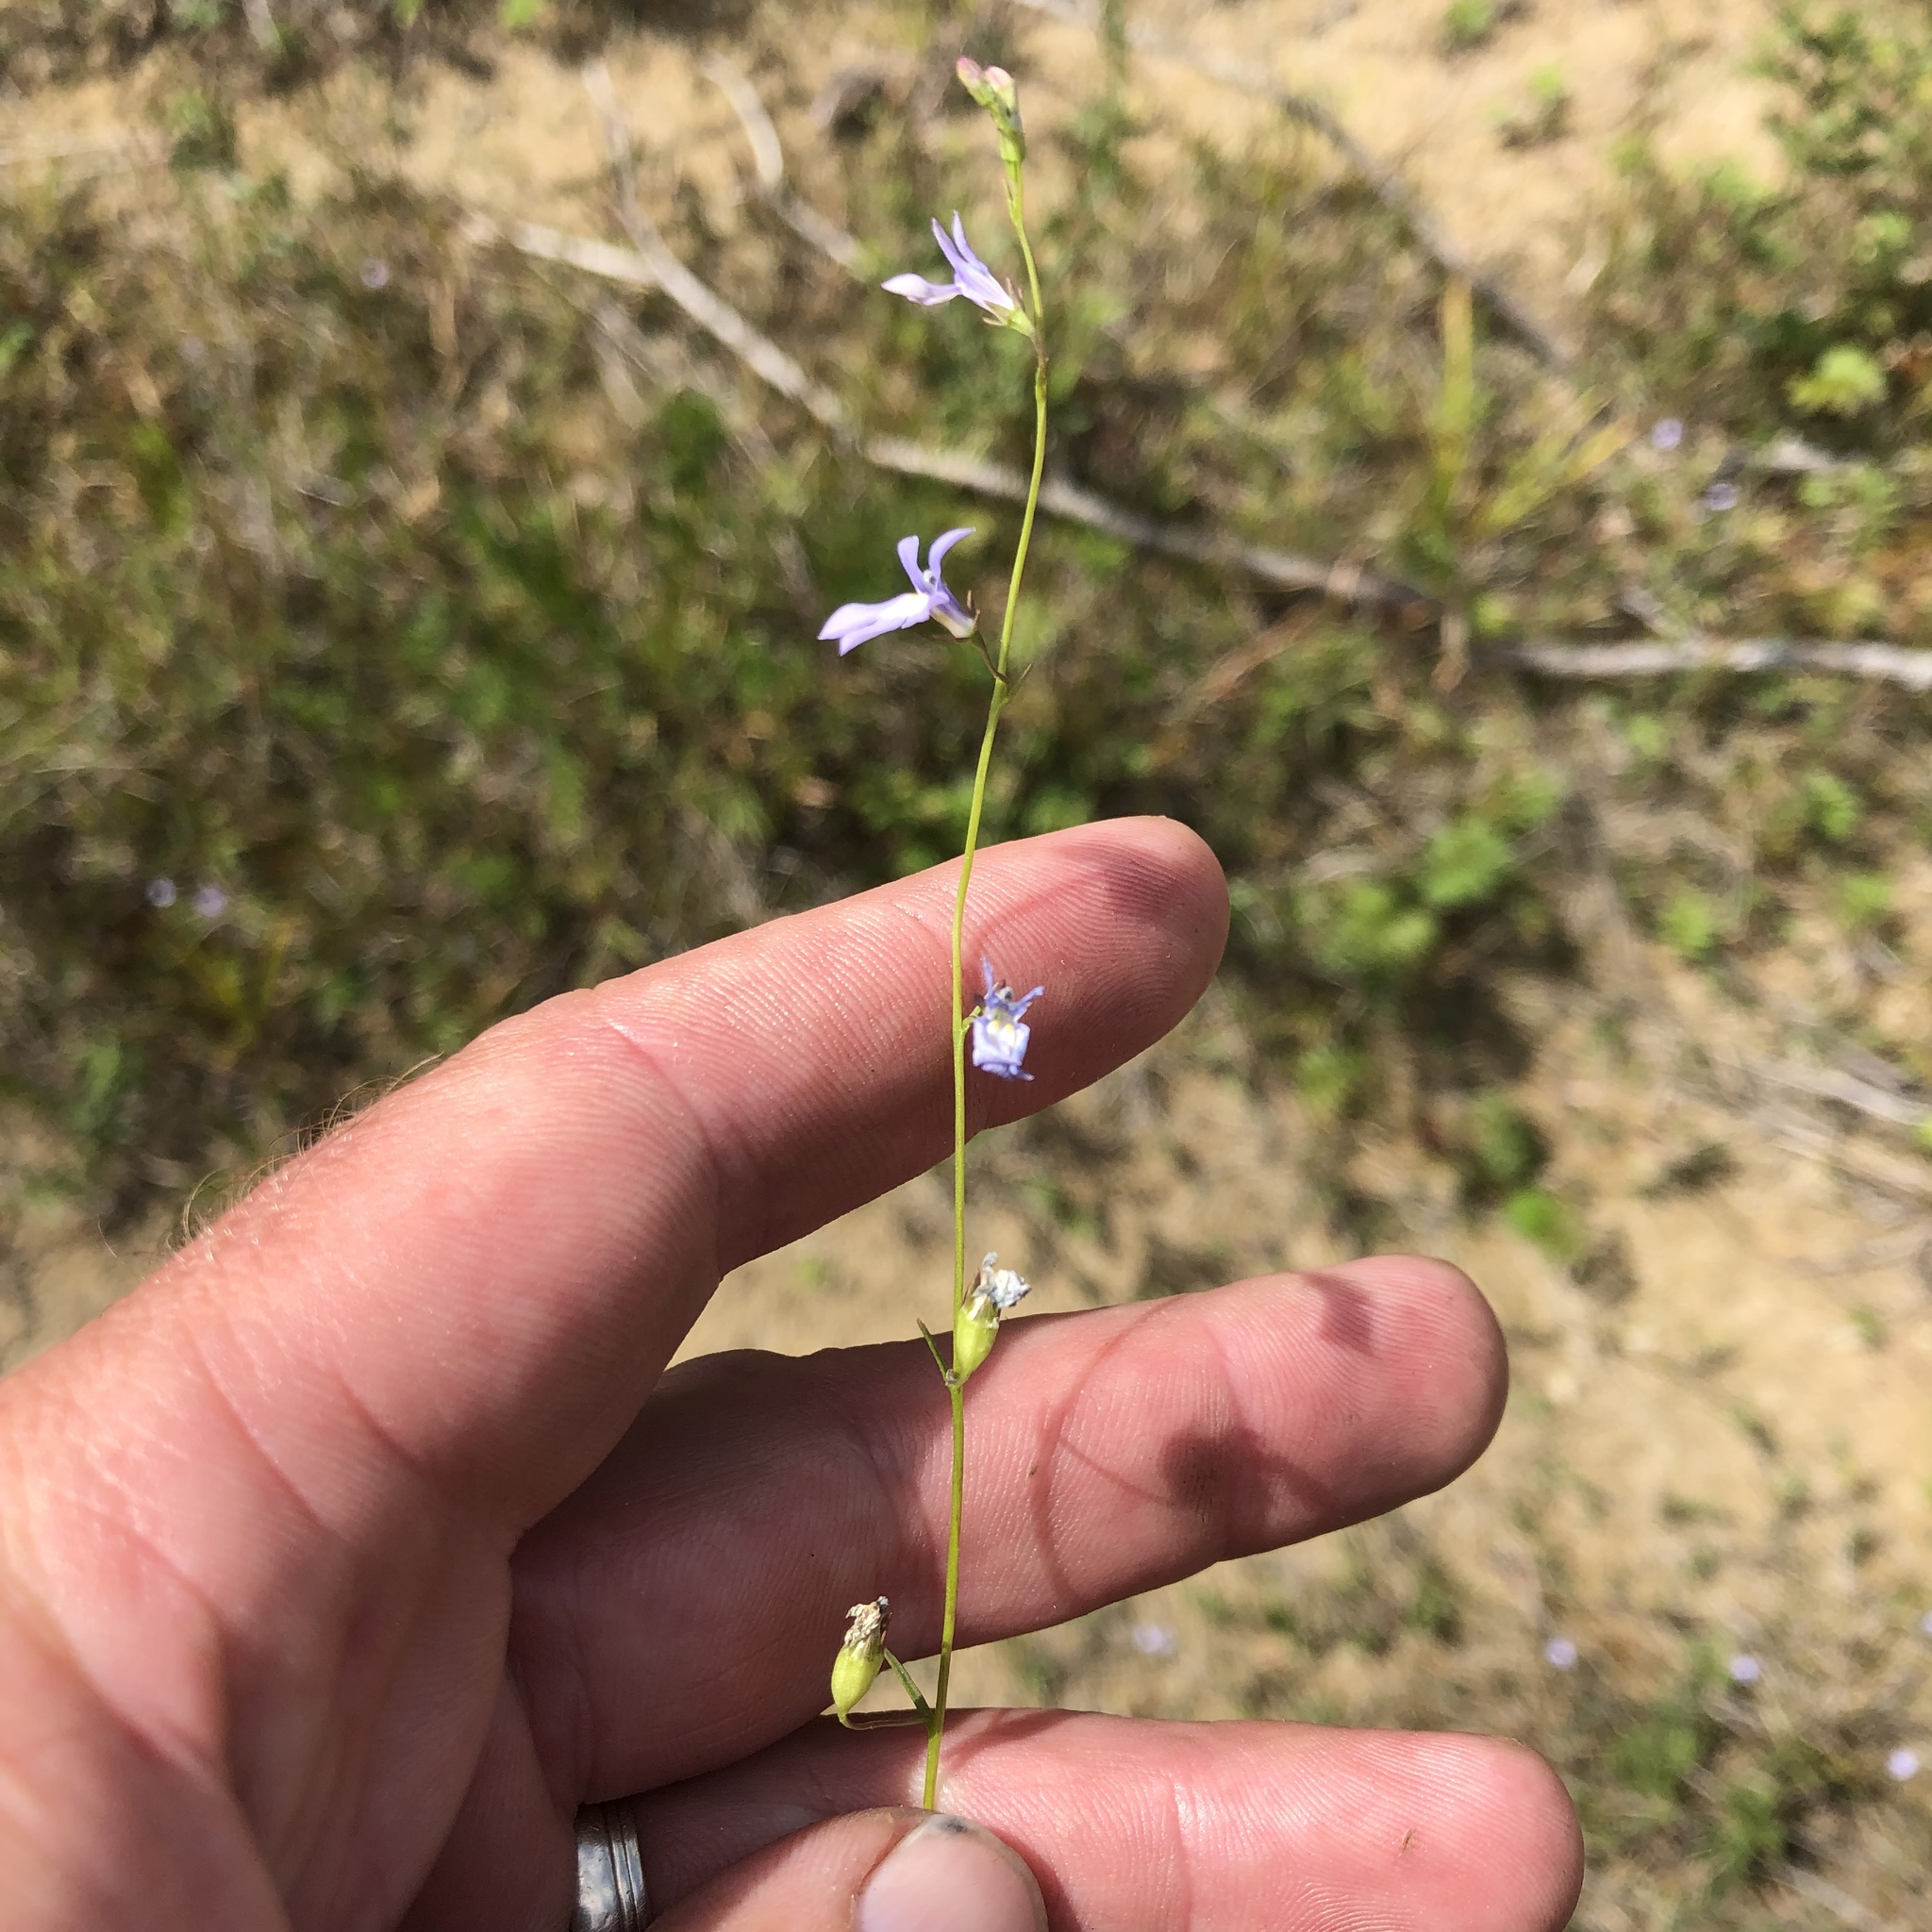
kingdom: Plantae
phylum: Tracheophyta
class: Magnoliopsida
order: Asterales
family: Campanulaceae
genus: Lobelia
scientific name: Lobelia kalmii
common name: Kalm's lobelia
